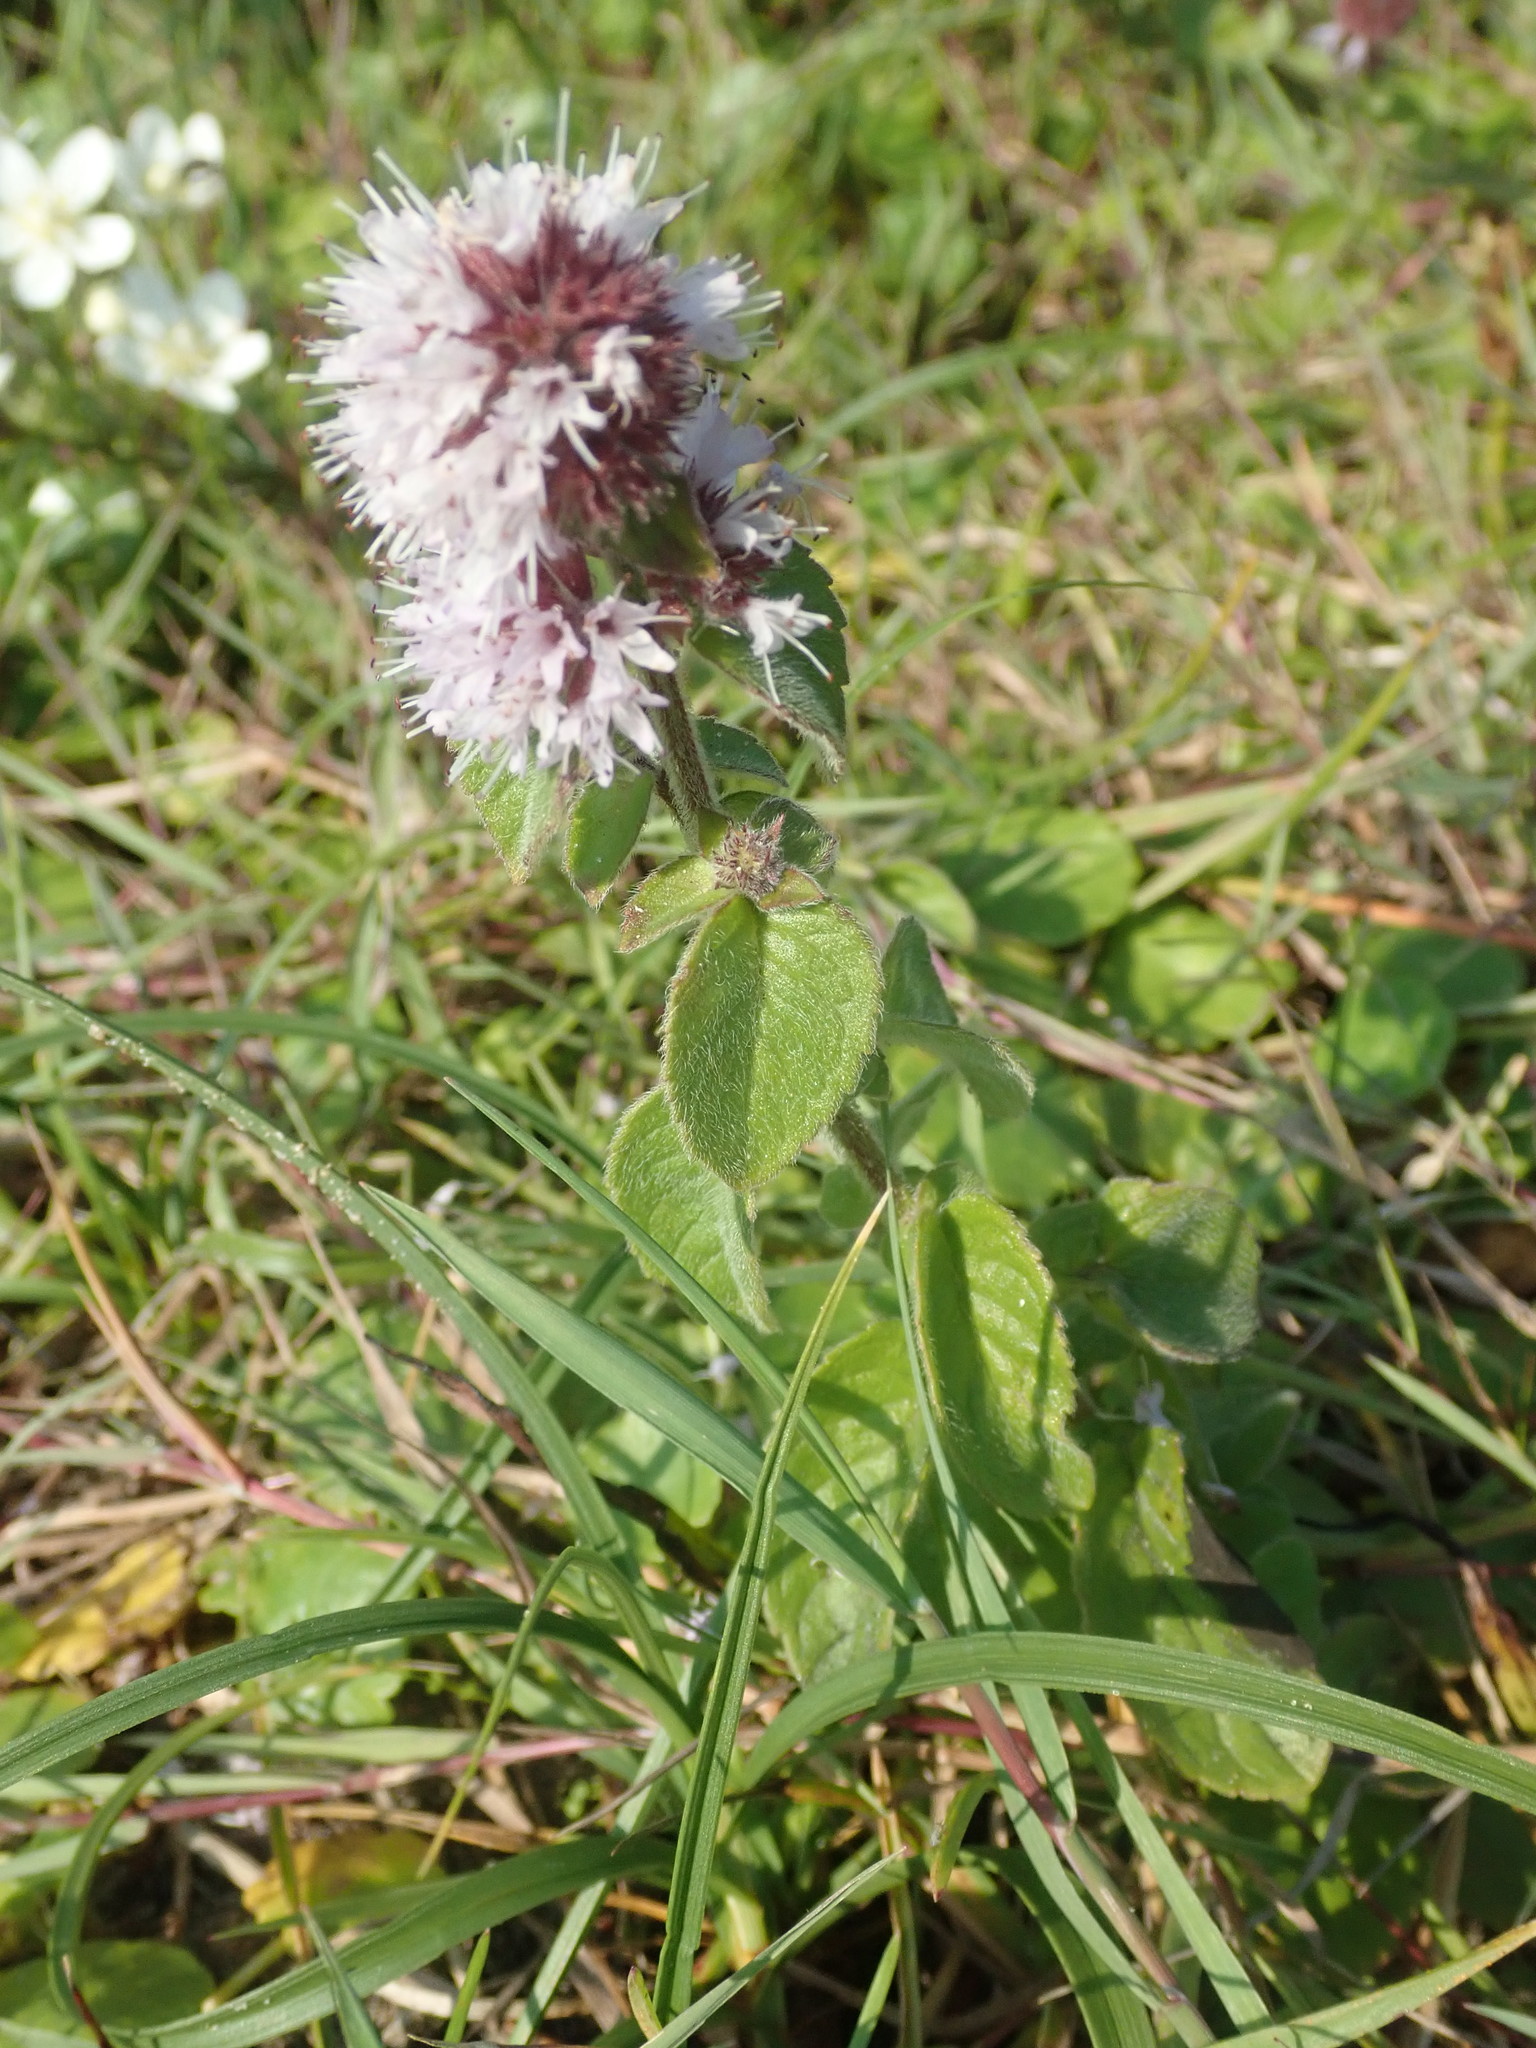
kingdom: Plantae
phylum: Tracheophyta
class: Magnoliopsida
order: Lamiales
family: Lamiaceae
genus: Mentha
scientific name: Mentha aquatica
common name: Water mint
